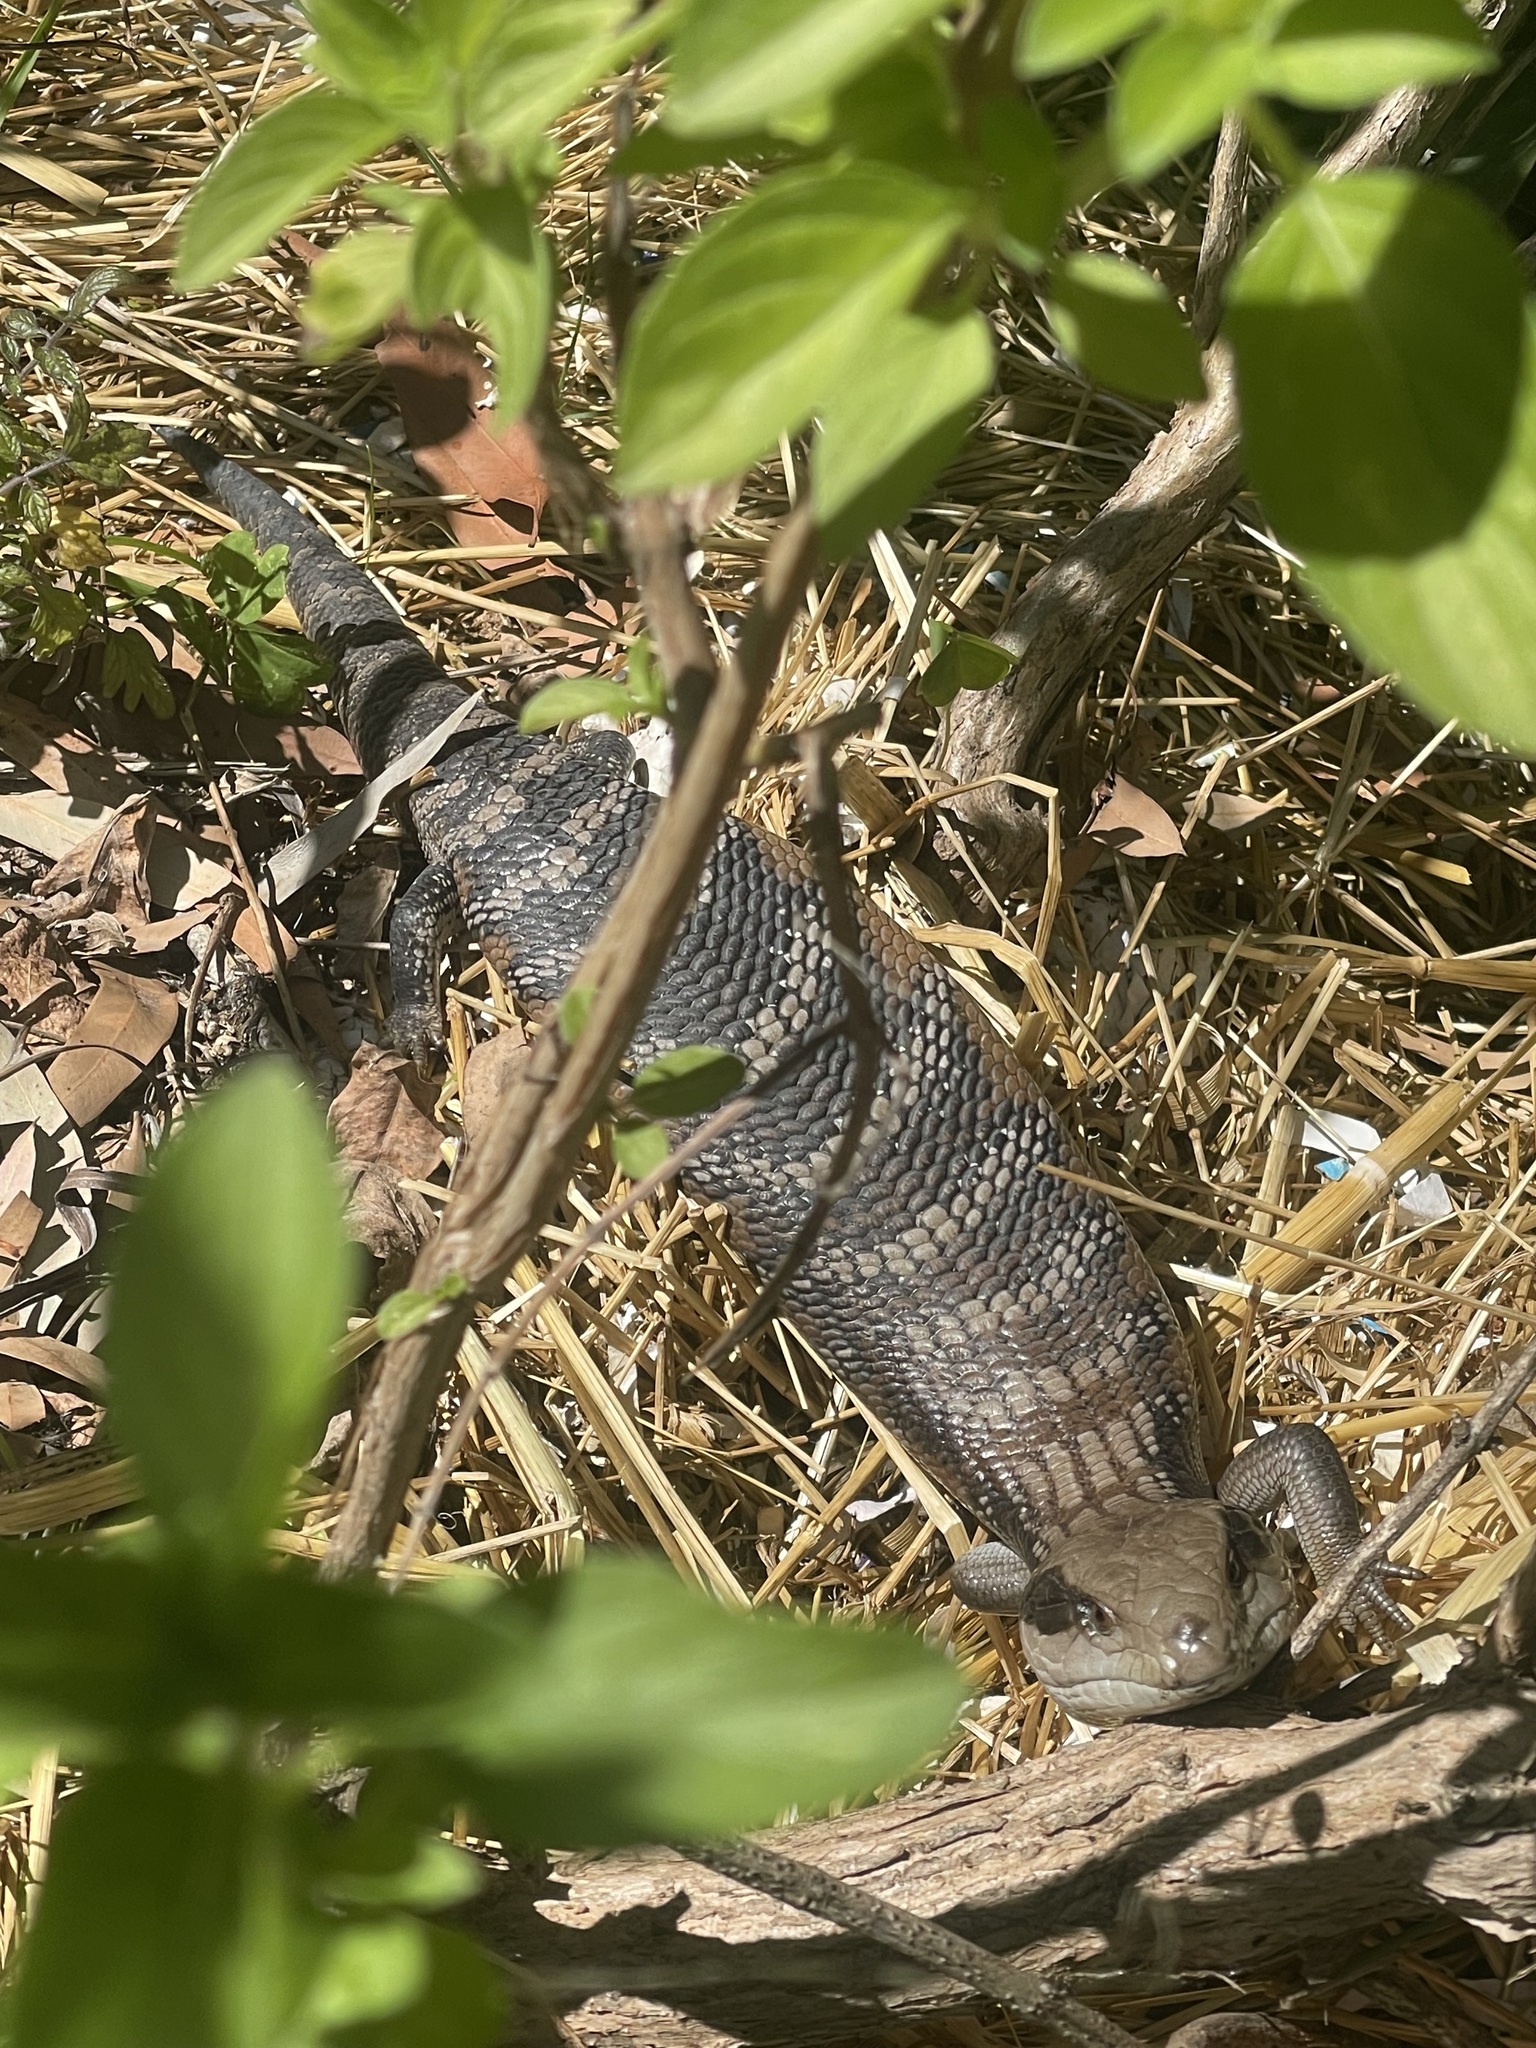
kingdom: Animalia
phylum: Chordata
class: Squamata
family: Scincidae
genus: Tiliqua
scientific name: Tiliqua scincoides
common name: Common bluetongue
